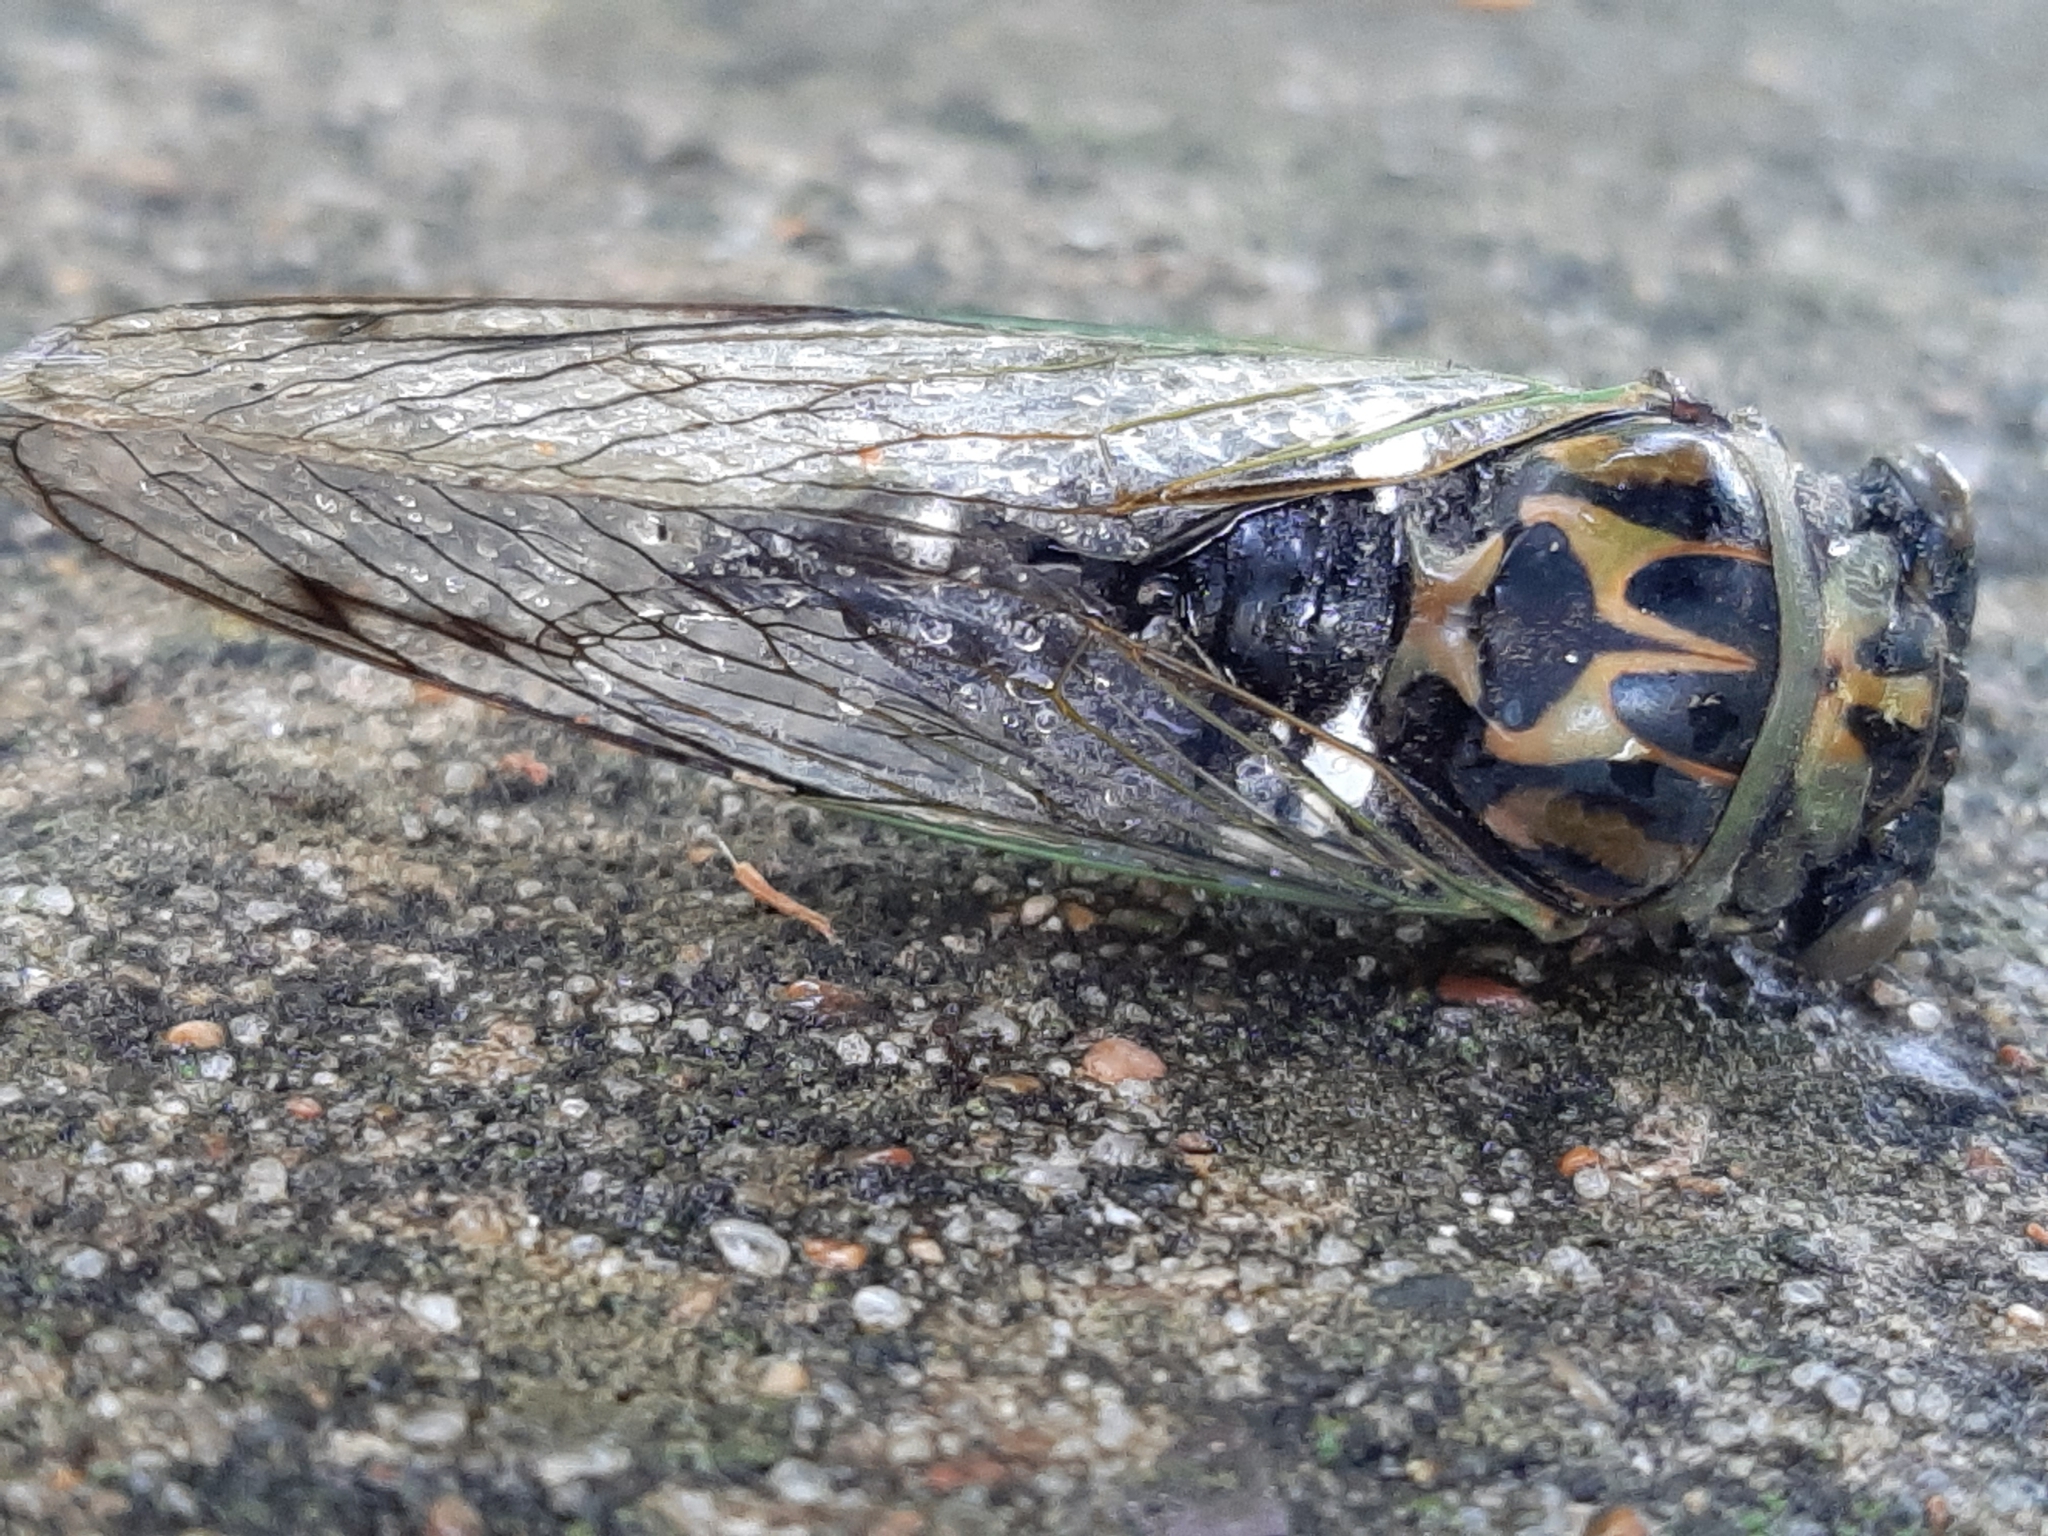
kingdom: Animalia
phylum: Arthropoda
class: Insecta
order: Hemiptera
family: Cicadidae
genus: Neotibicen
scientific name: Neotibicen pruinosus
